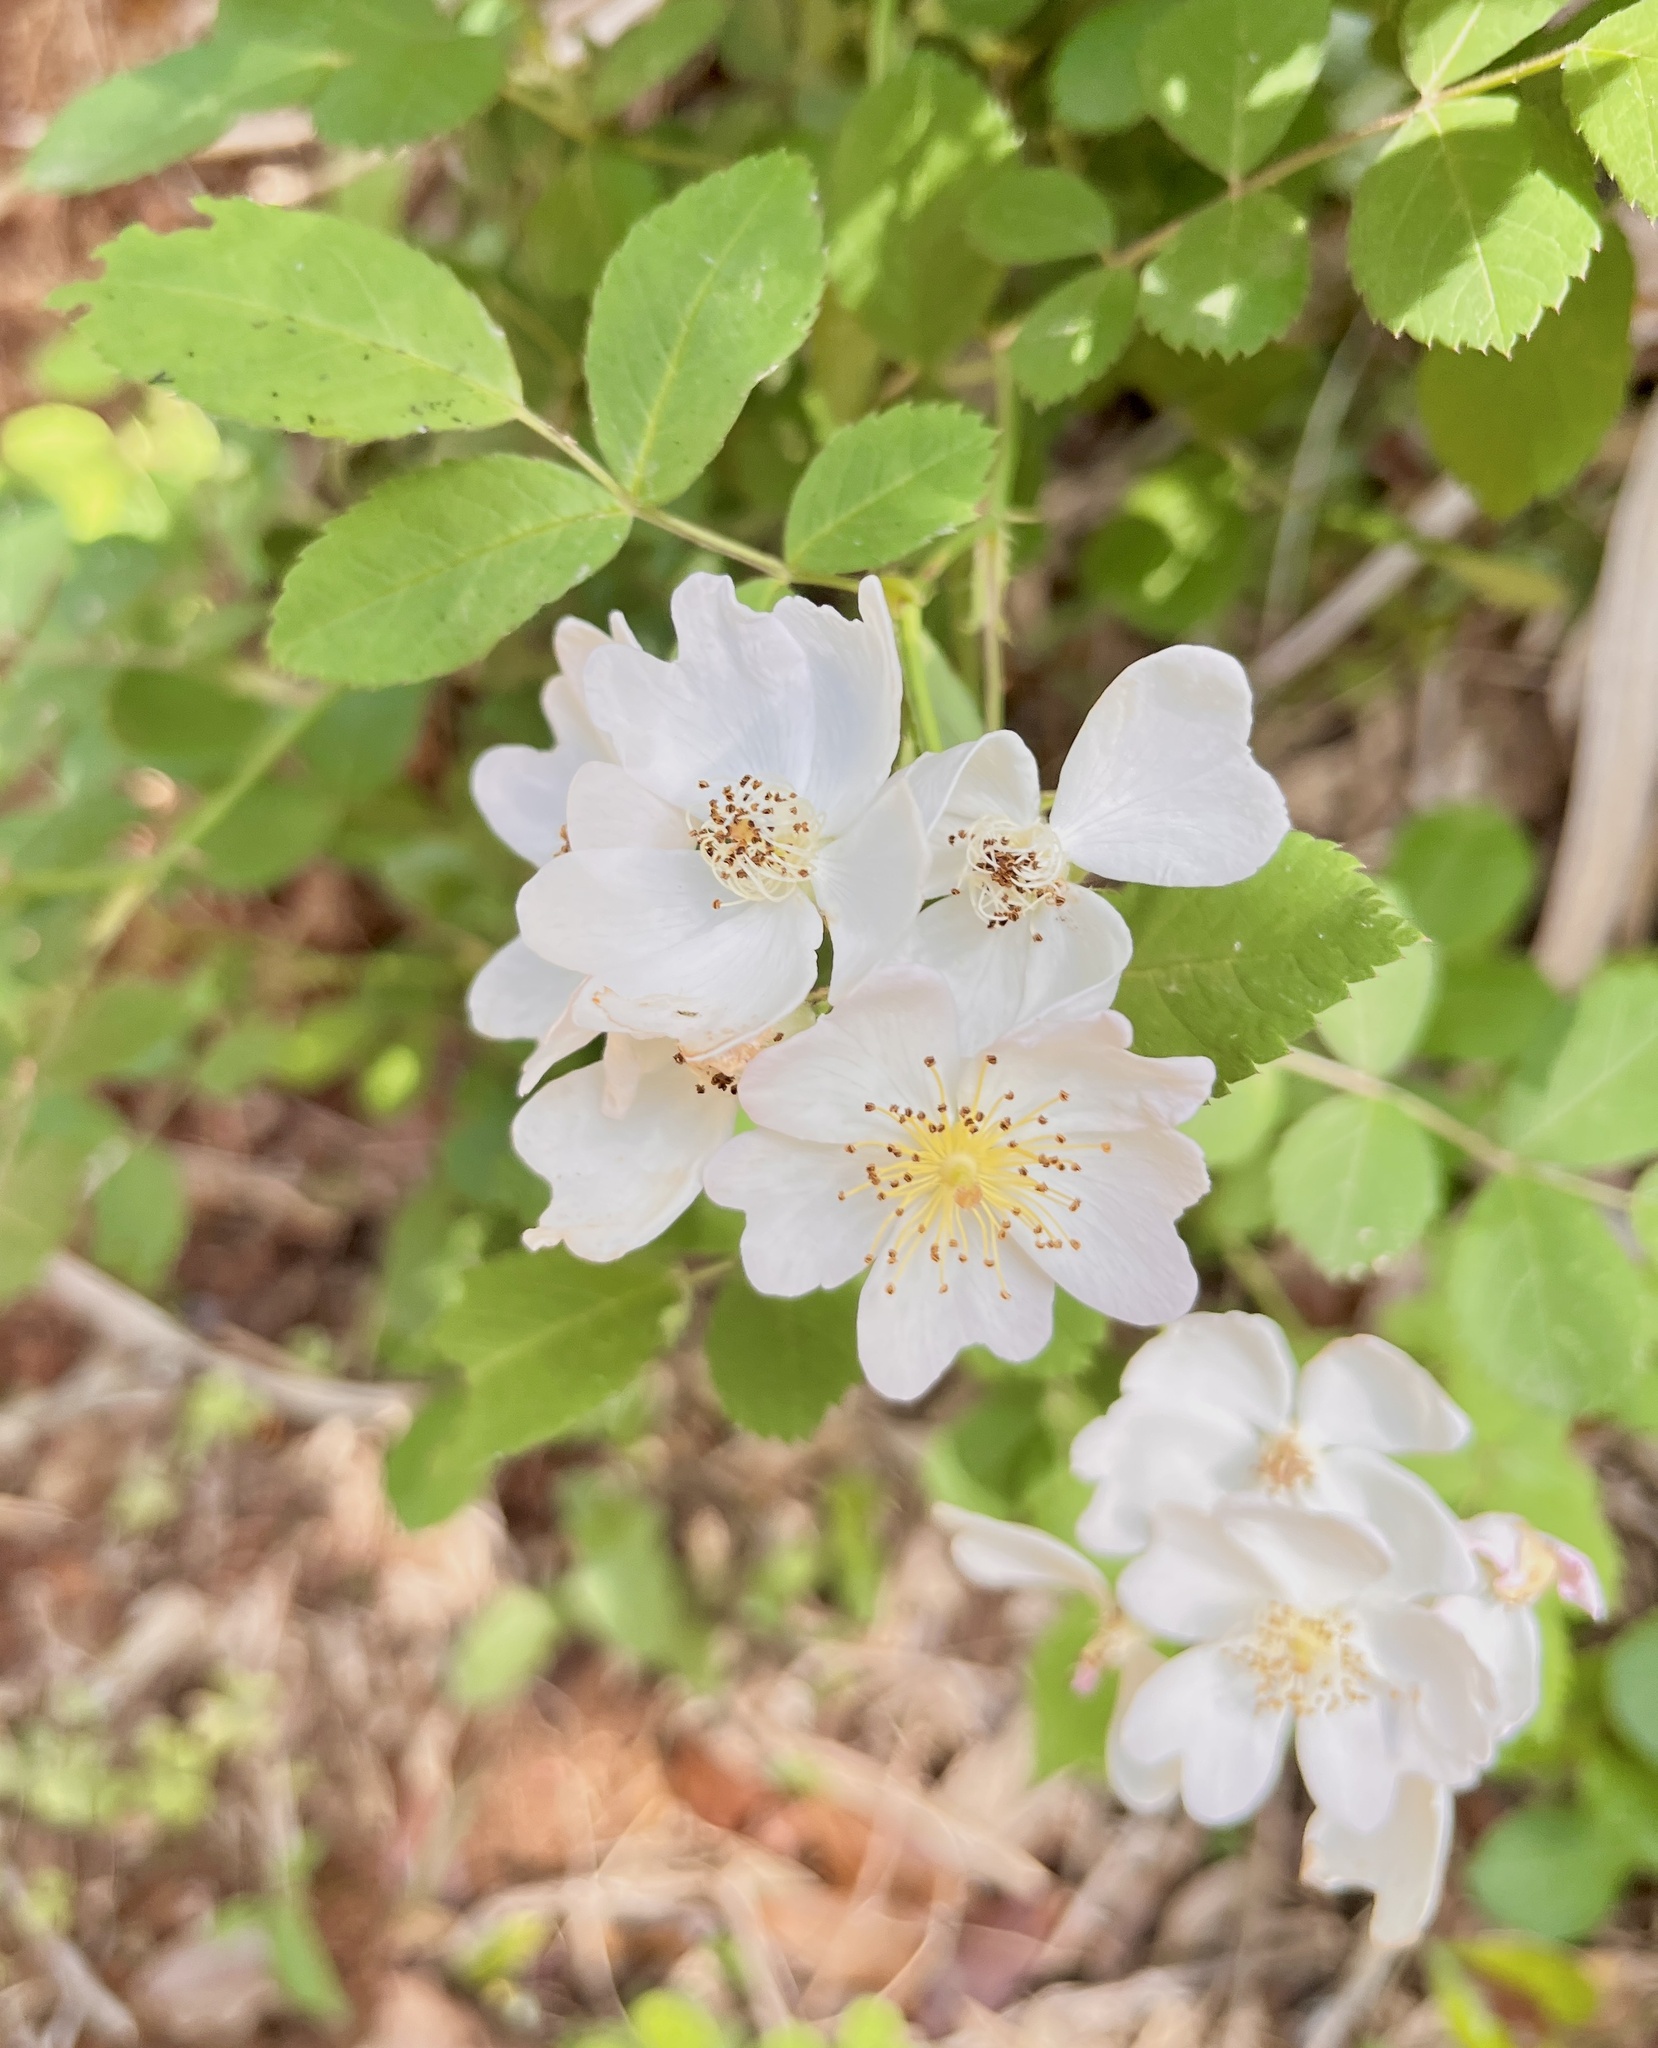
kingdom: Plantae
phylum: Tracheophyta
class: Magnoliopsida
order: Rosales
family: Rosaceae
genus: Rosa
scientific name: Rosa multiflora
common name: Multiflora rose
